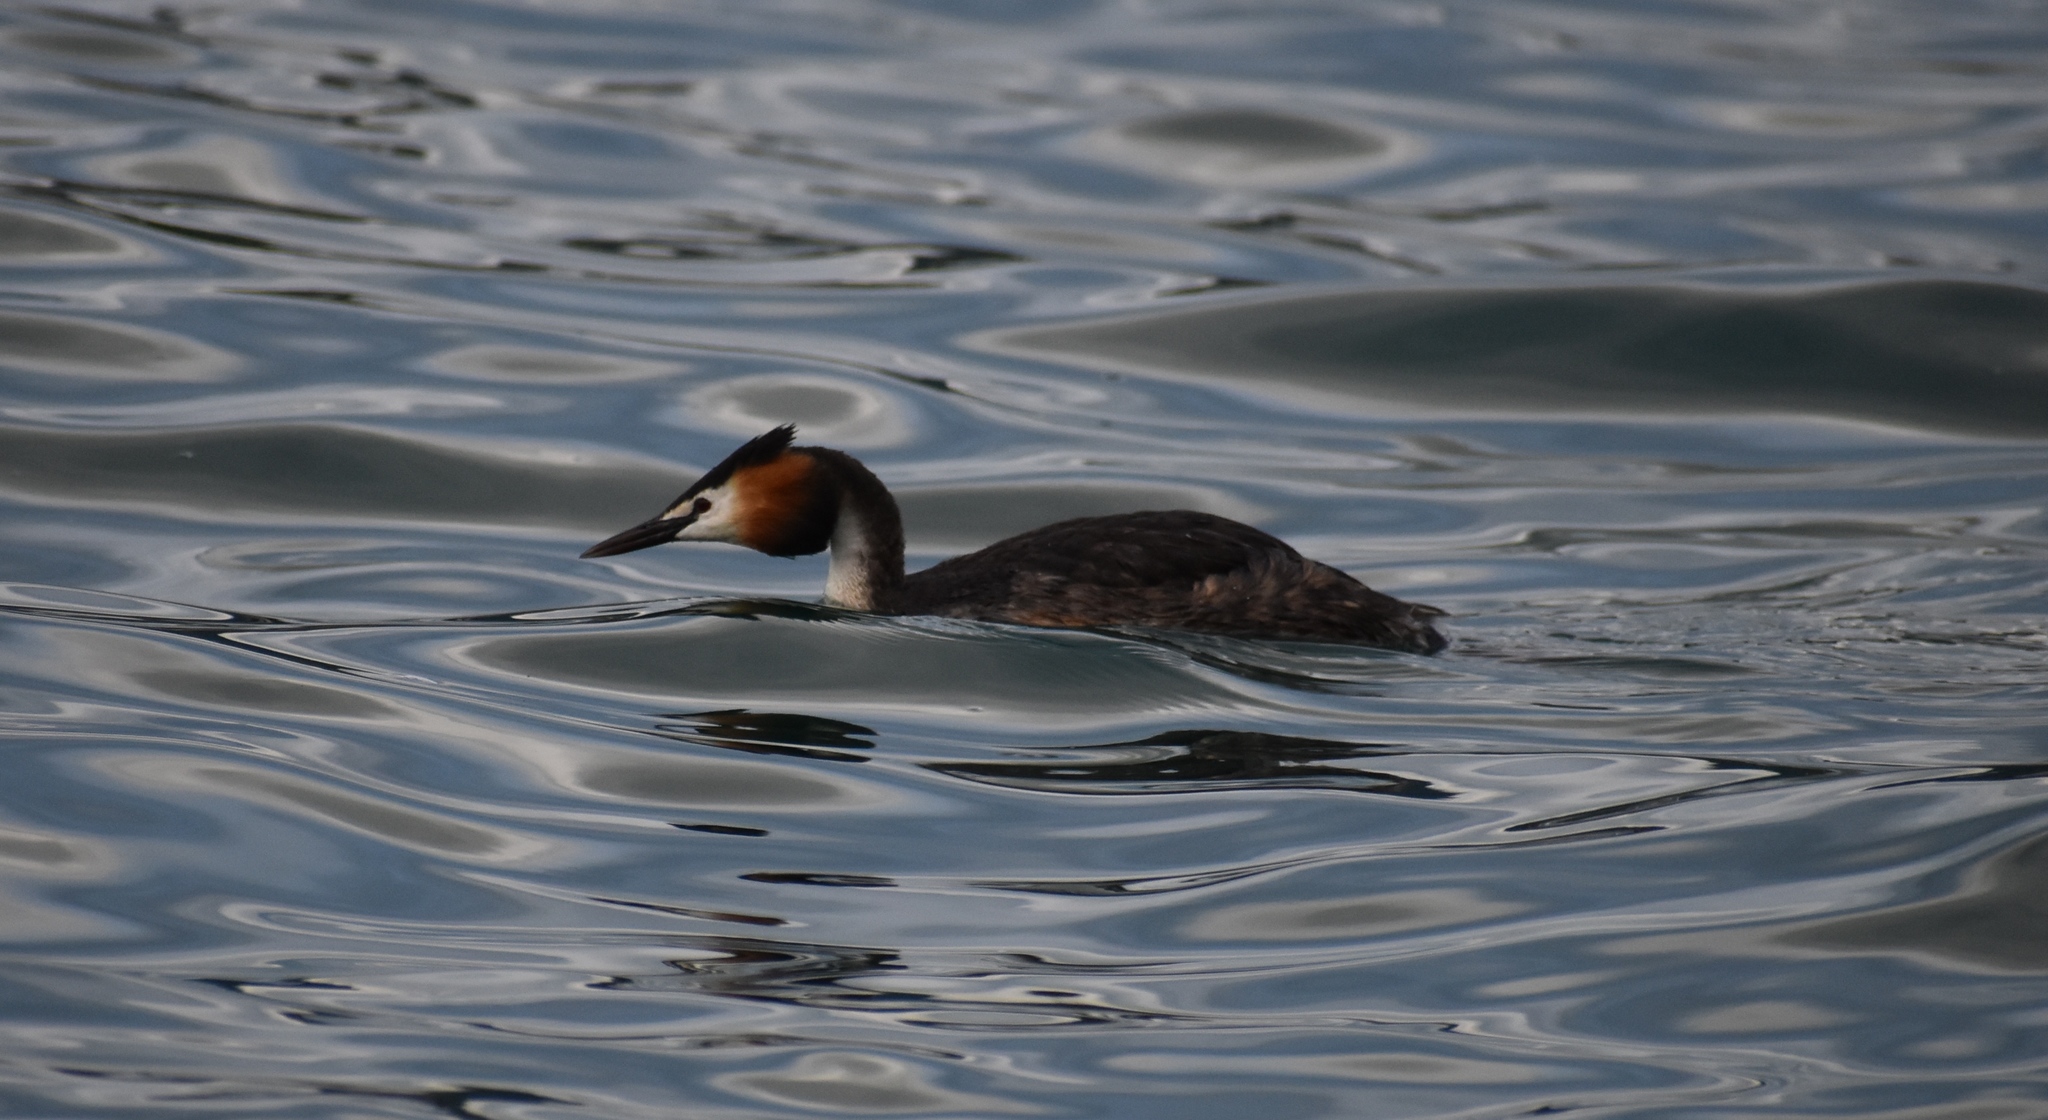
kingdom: Animalia
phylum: Chordata
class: Aves
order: Podicipediformes
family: Podicipedidae
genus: Podiceps
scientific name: Podiceps cristatus
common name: Great crested grebe
